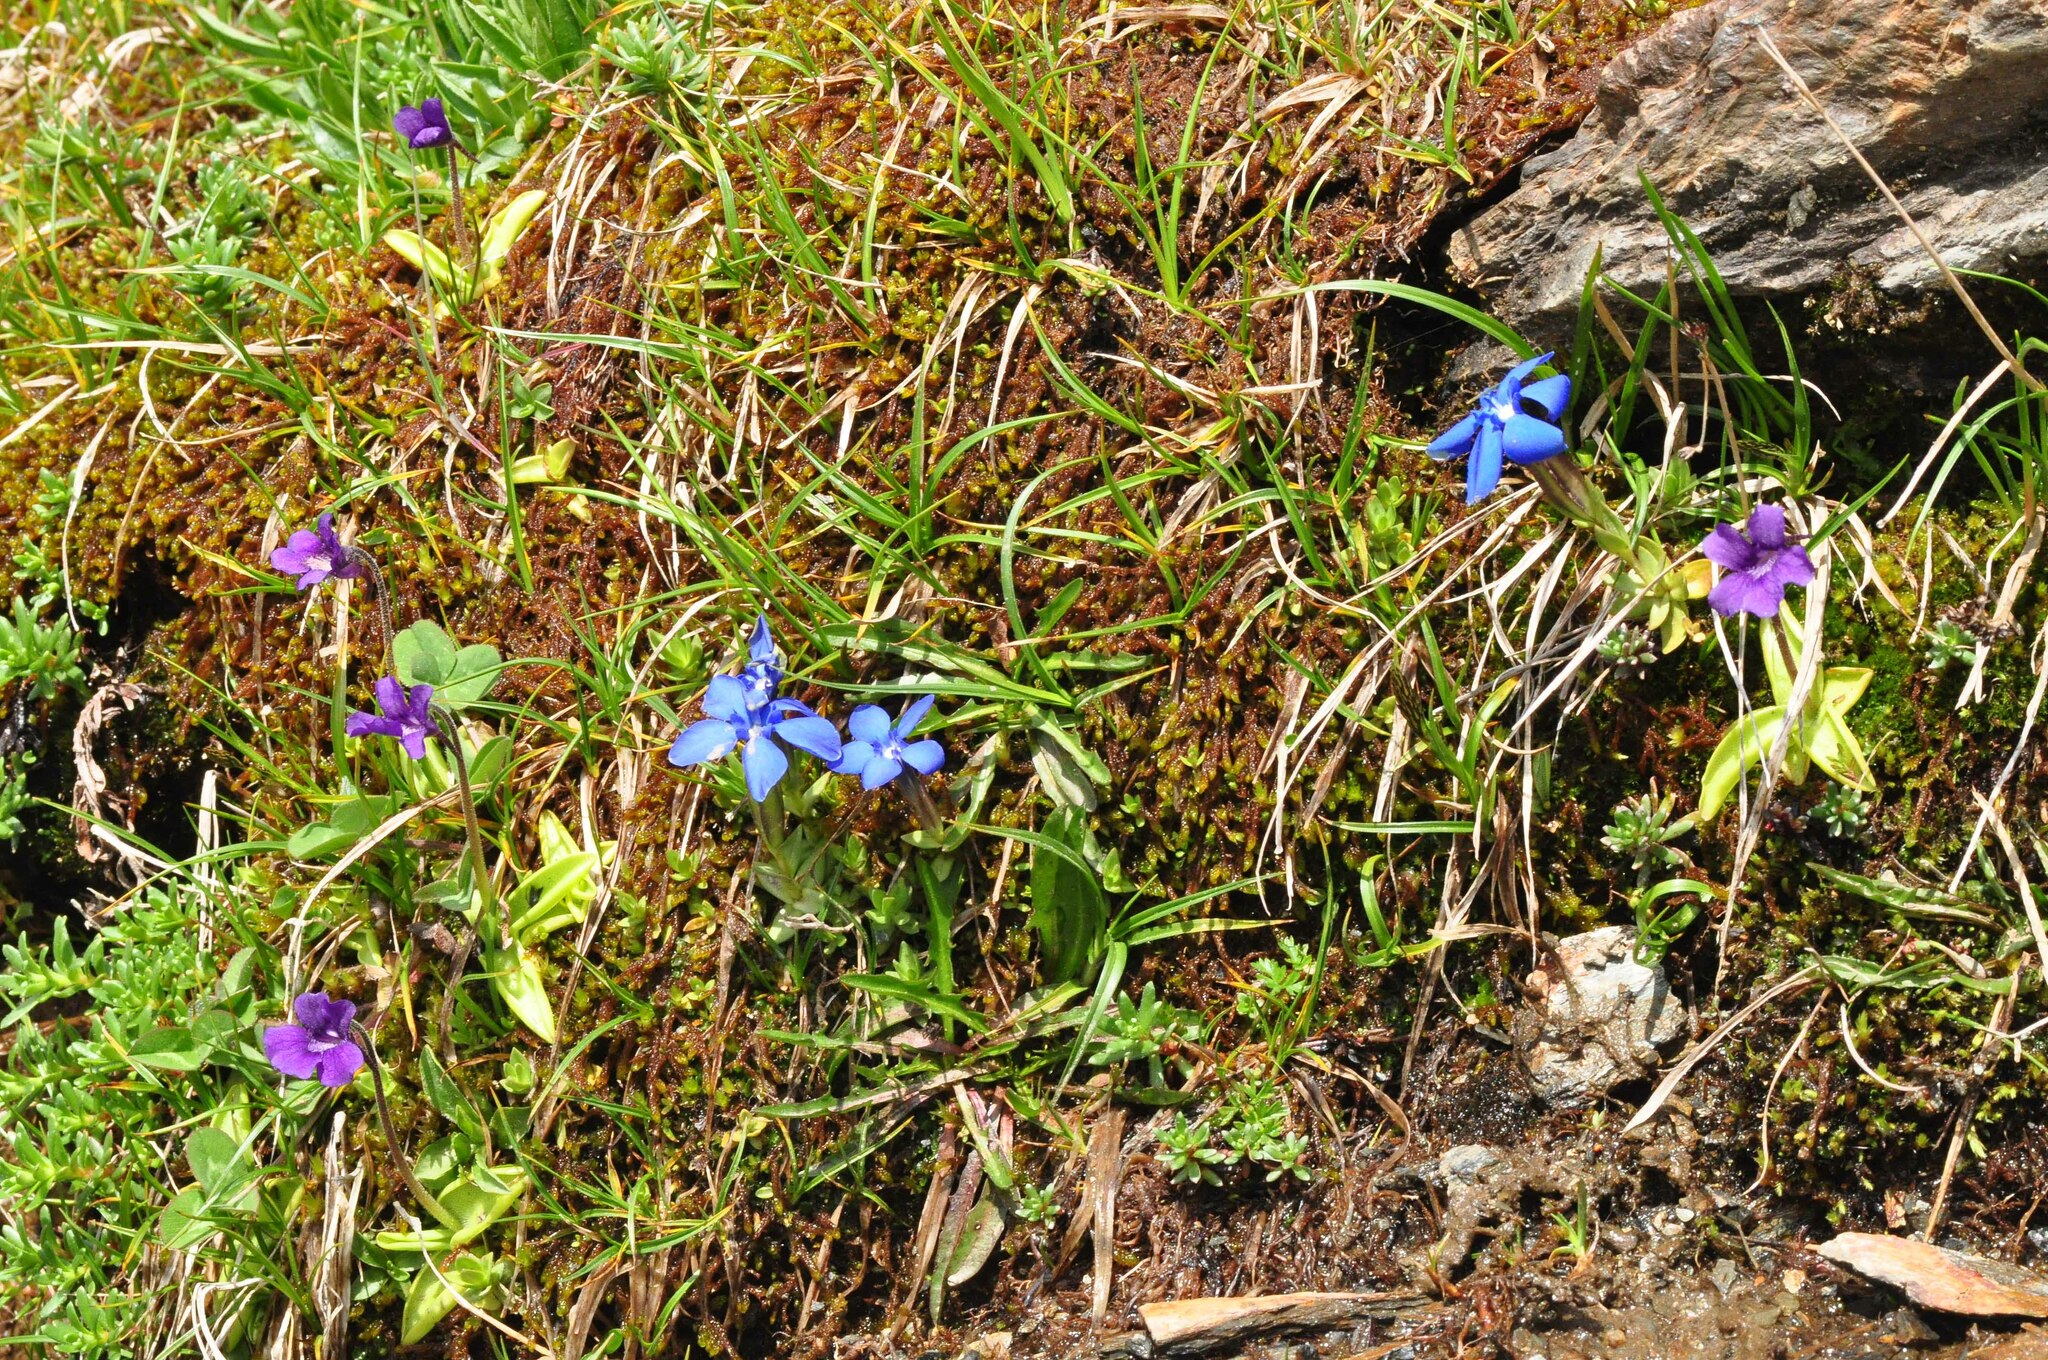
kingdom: Plantae
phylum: Tracheophyta
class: Magnoliopsida
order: Lamiales
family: Lentibulariaceae
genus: Pinguicula
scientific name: Pinguicula grandiflora
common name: Large-flowered butterwort
